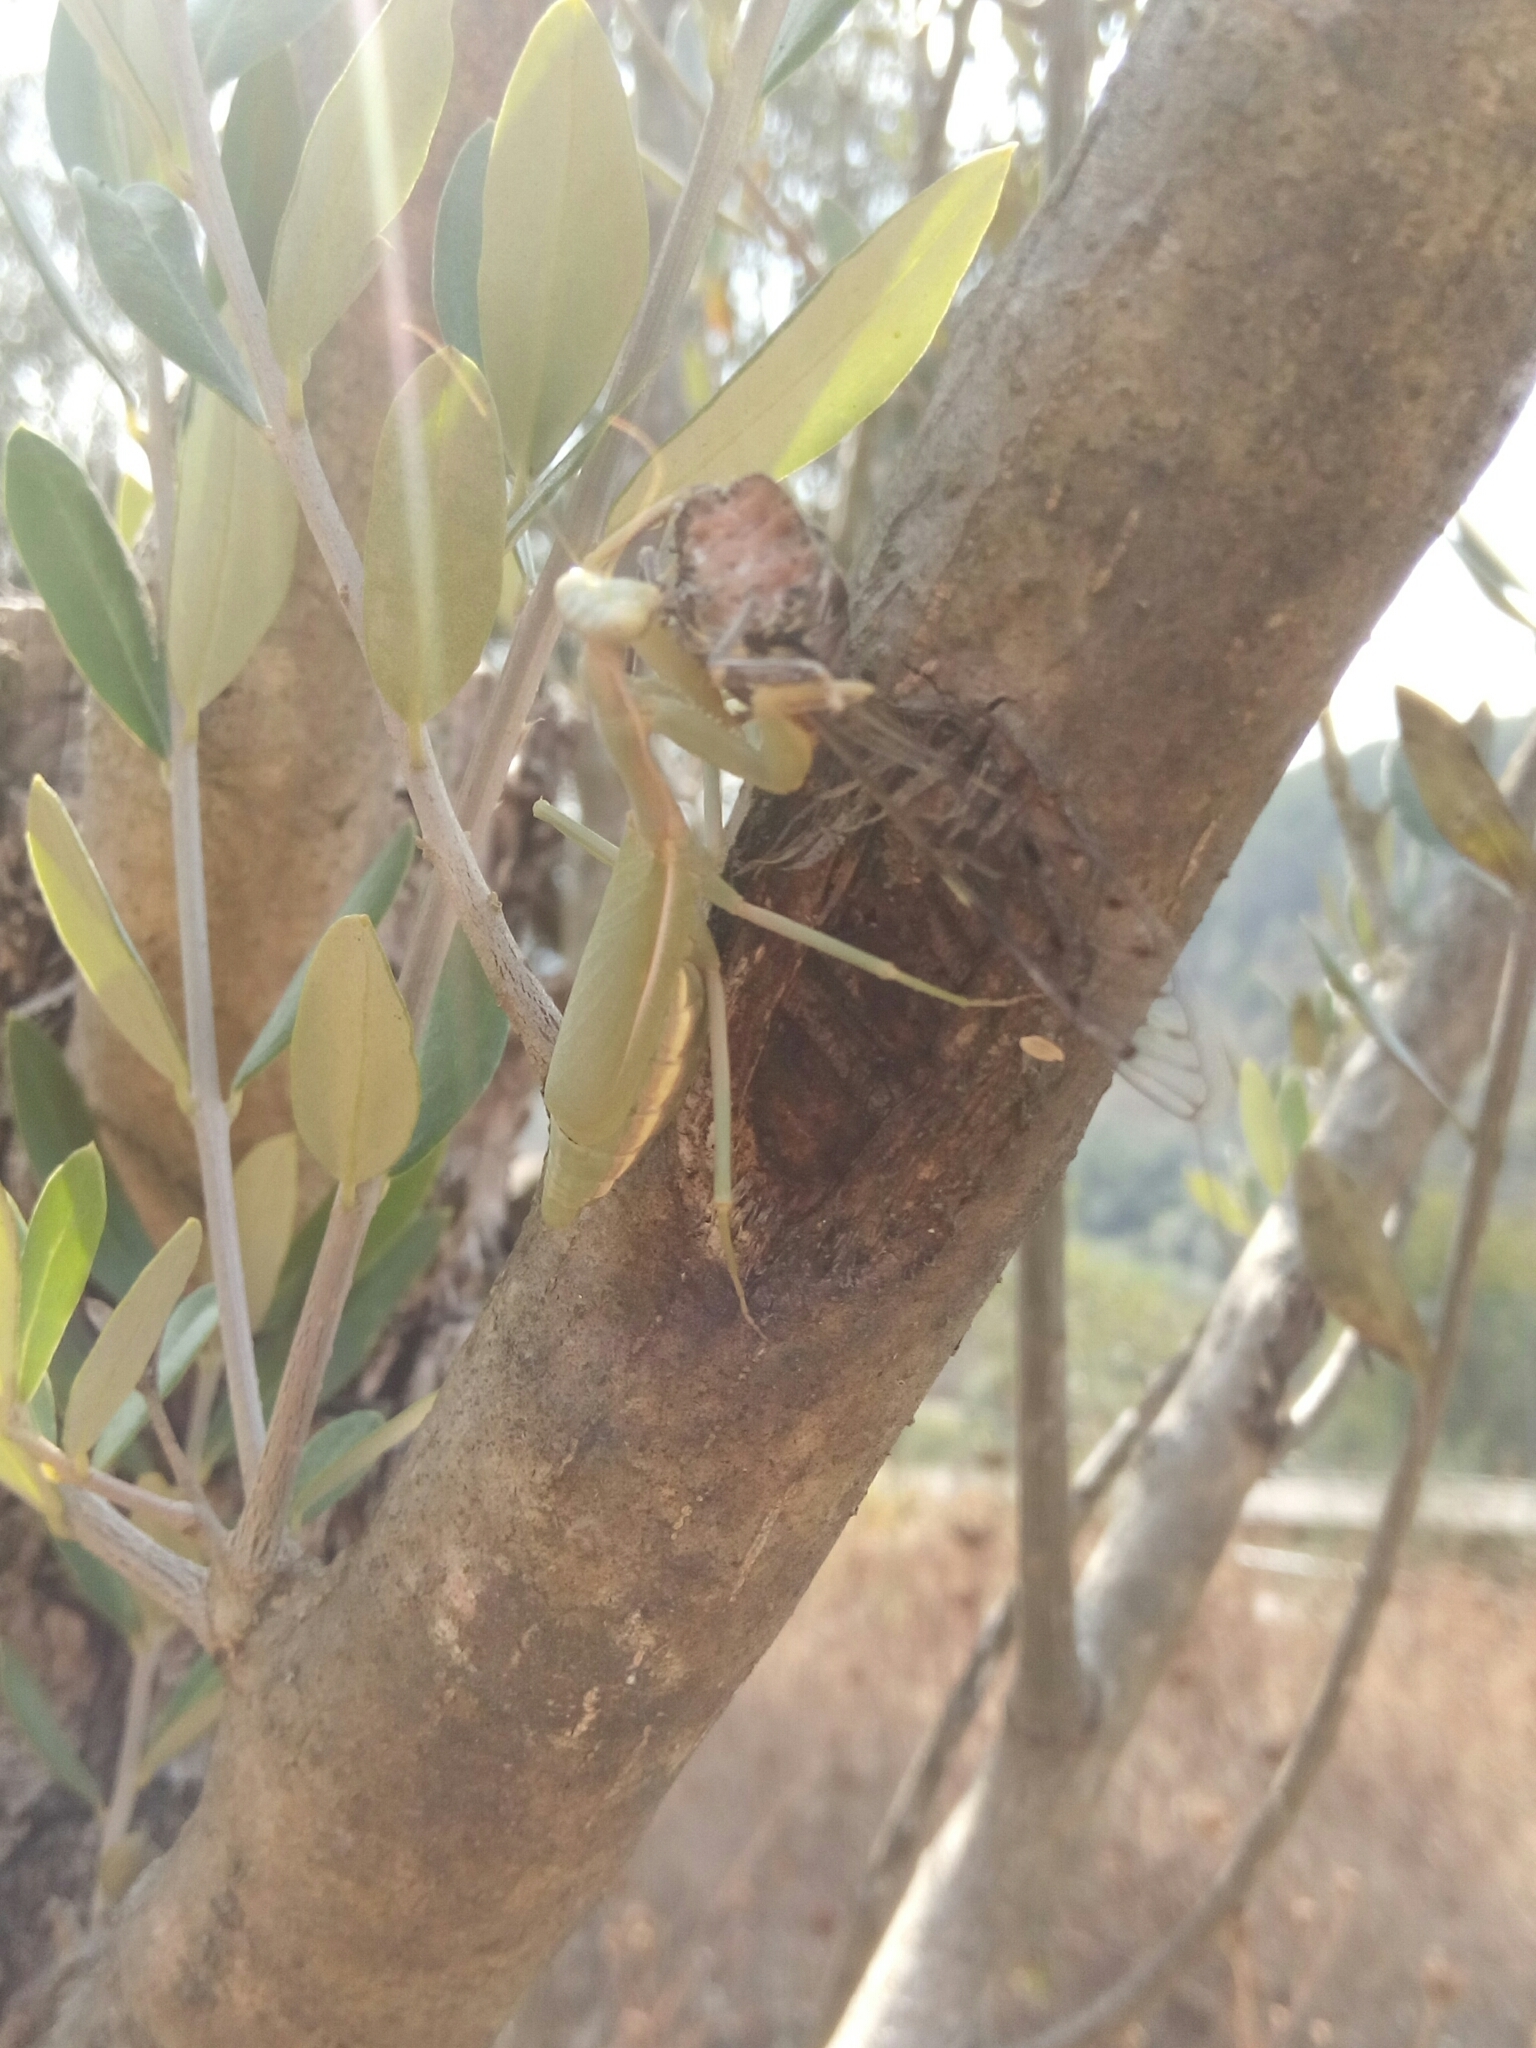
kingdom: Animalia
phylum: Arthropoda
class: Insecta
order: Mantodea
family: Eremiaphilidae
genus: Iris
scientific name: Iris oratoria
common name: Mediterranean mantis
